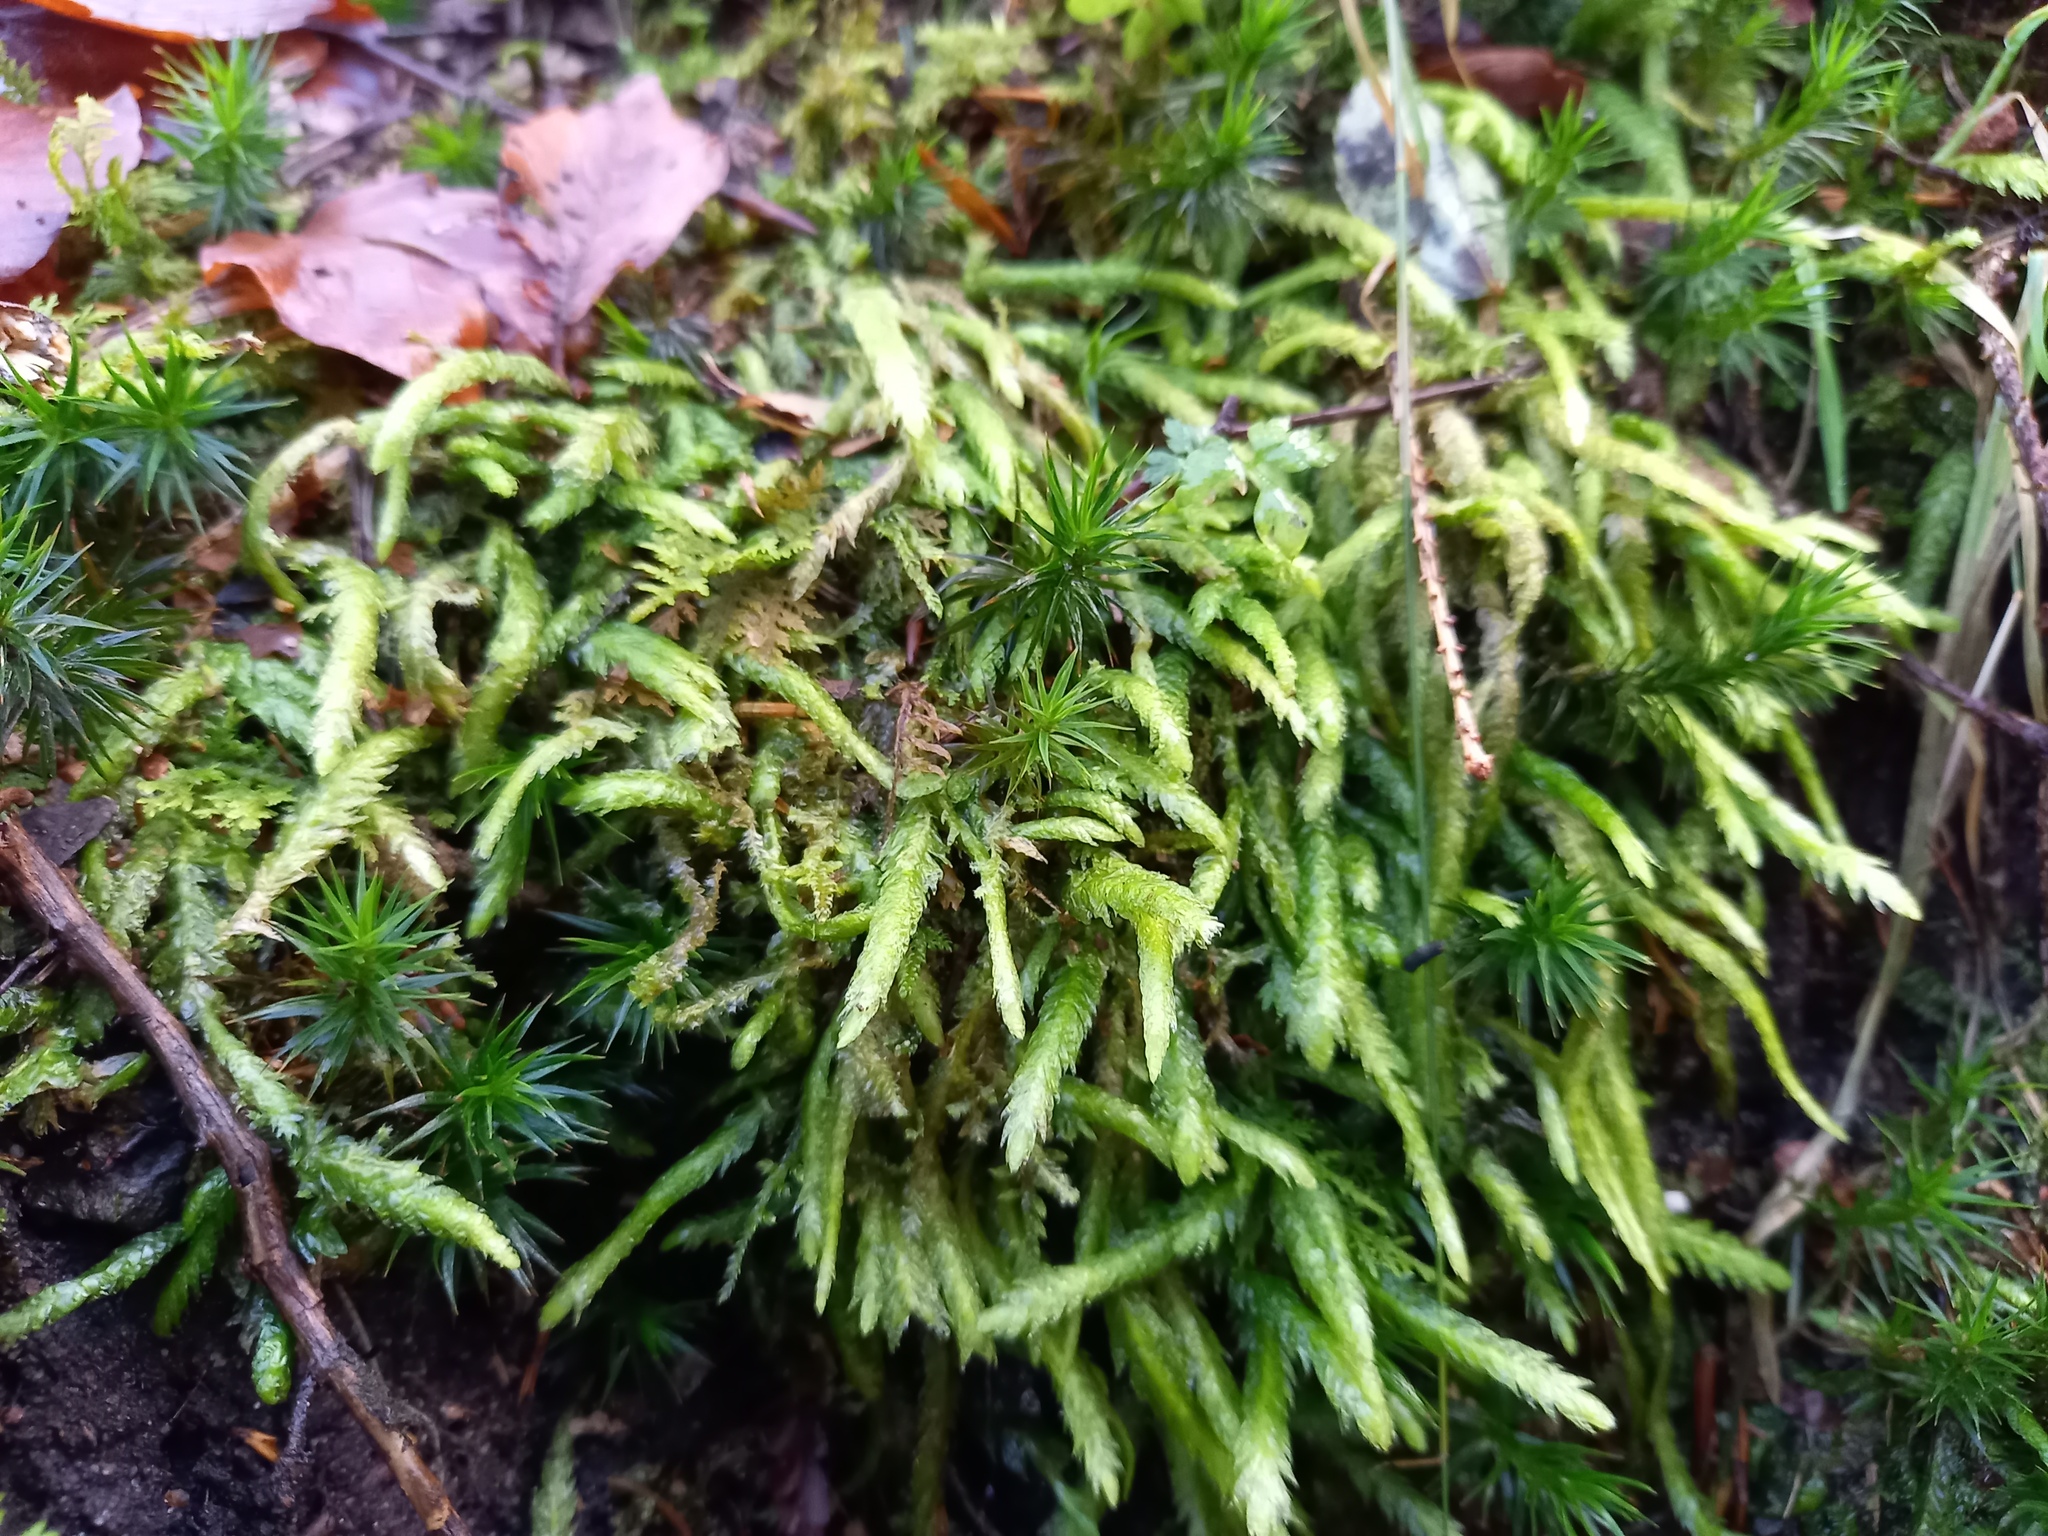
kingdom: Plantae
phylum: Bryophyta
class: Bryopsida
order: Hypnales
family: Plagiotheciaceae
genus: Plagiothecium
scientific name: Plagiothecium undulatum
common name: Waved silk-moss
